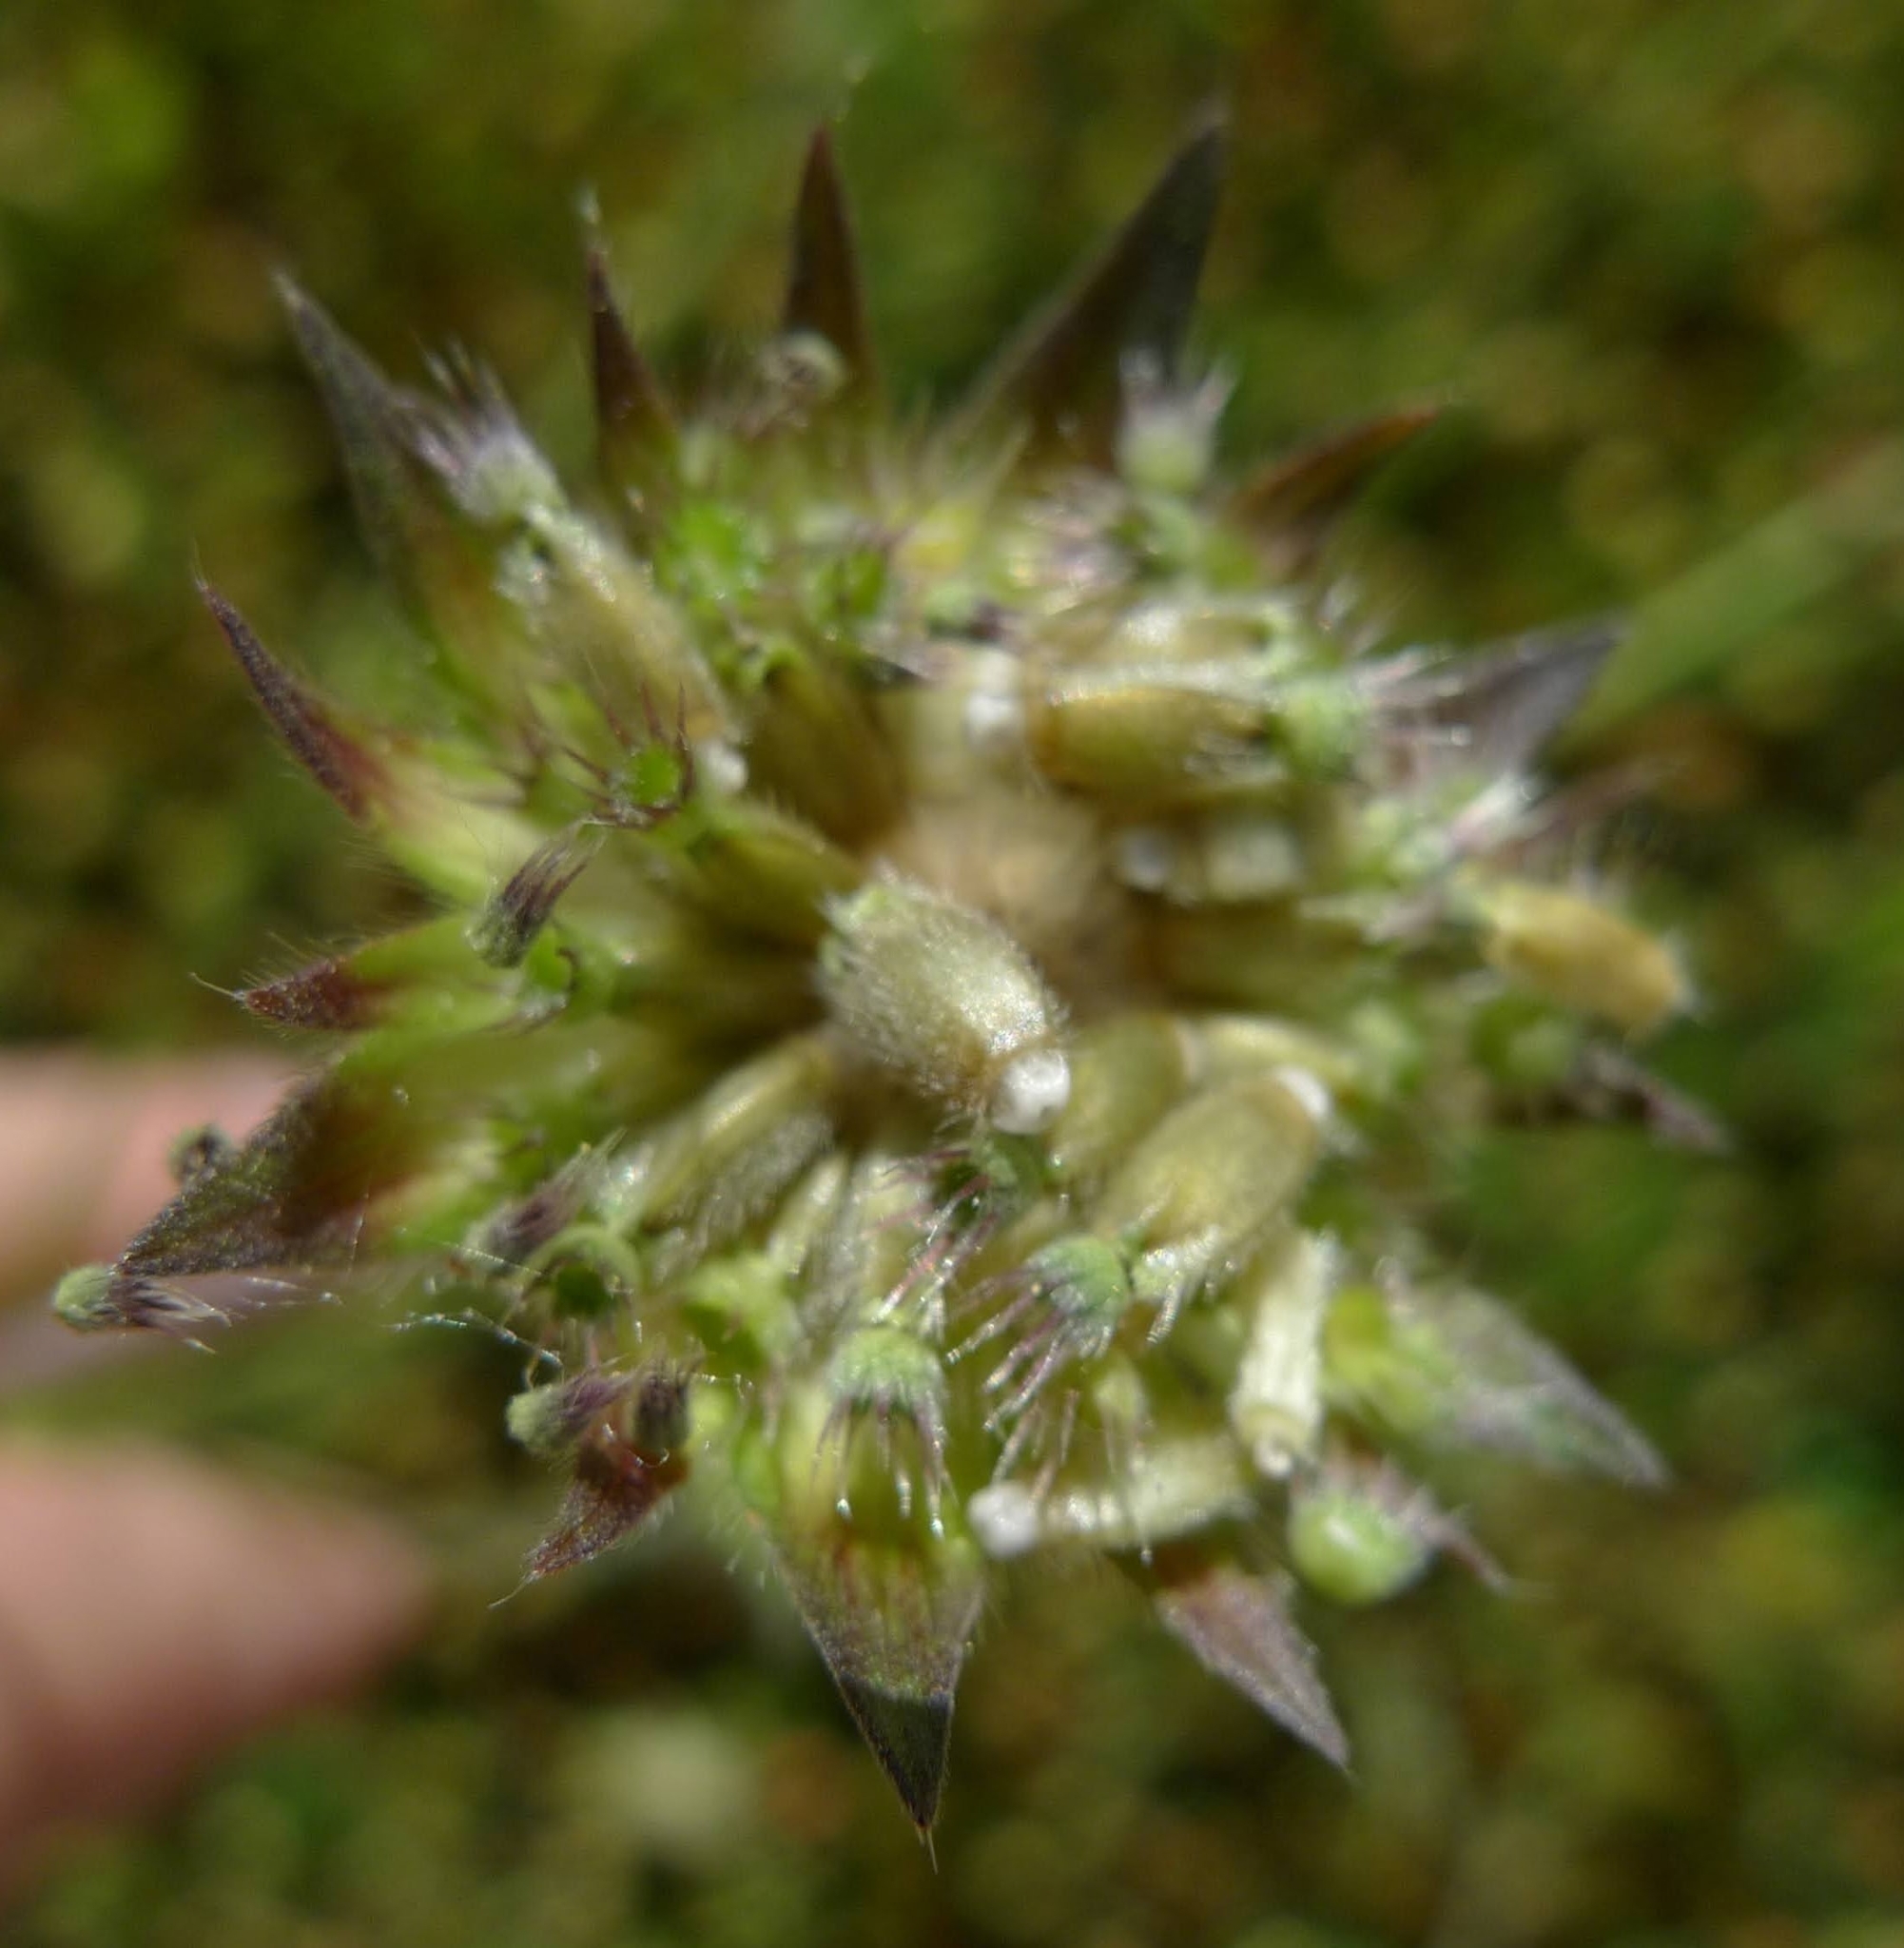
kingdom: Plantae
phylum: Tracheophyta
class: Magnoliopsida
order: Dipsacales
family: Caprifoliaceae
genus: Knautia
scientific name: Knautia arvensis
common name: Field scabiosa
